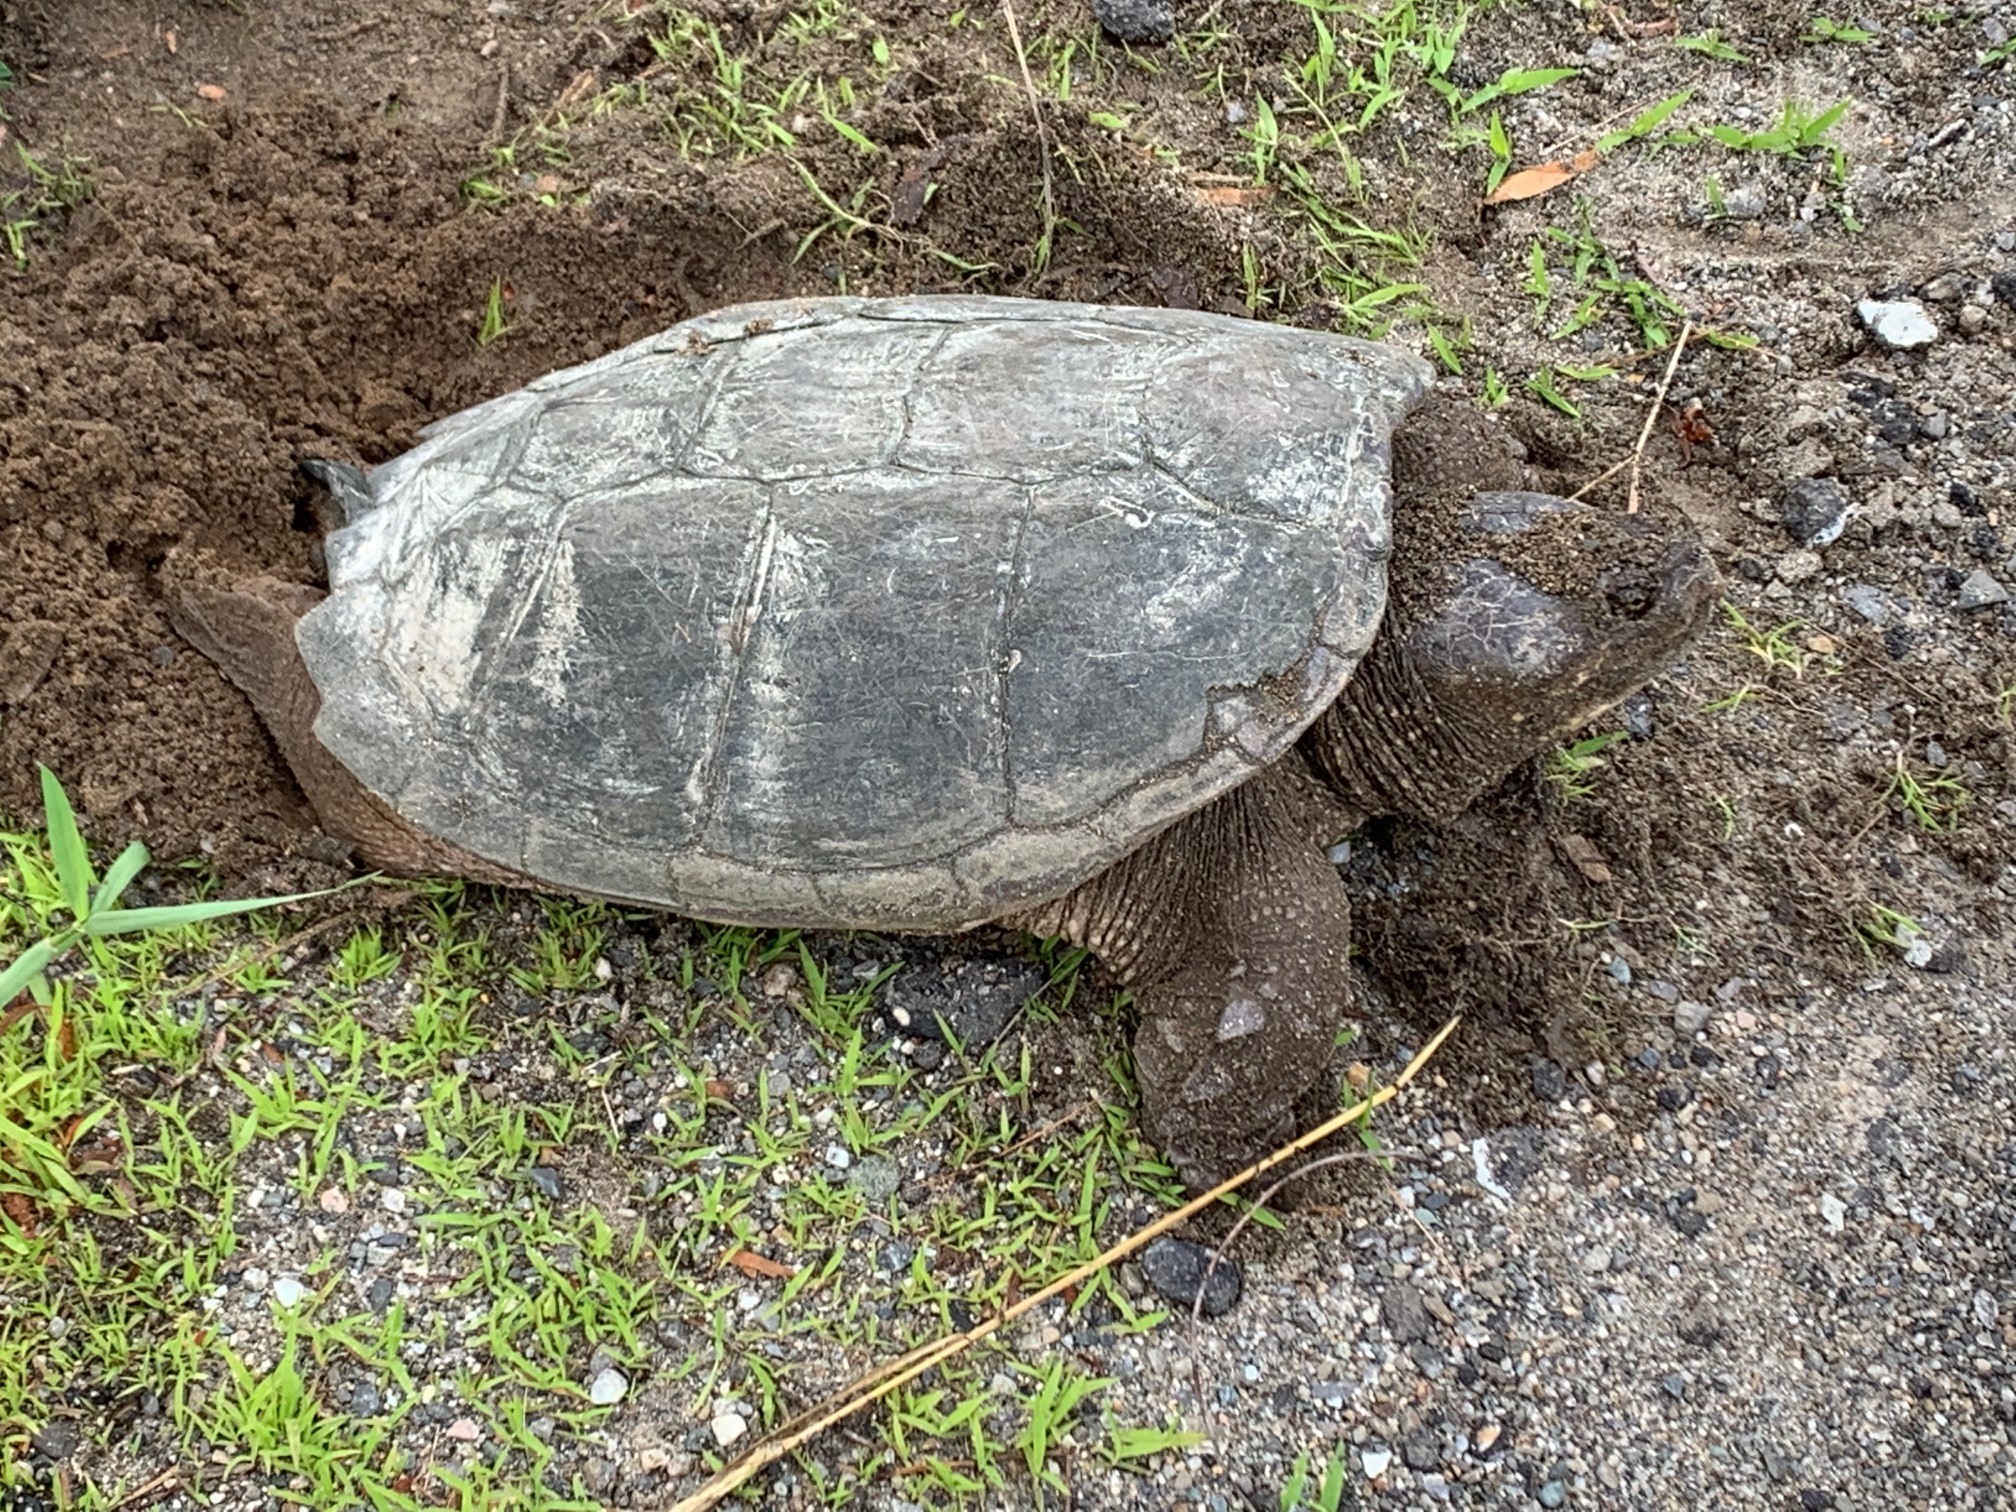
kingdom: Animalia
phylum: Chordata
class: Testudines
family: Chelydridae
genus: Chelydra
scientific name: Chelydra serpentina
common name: Common snapping turtle
